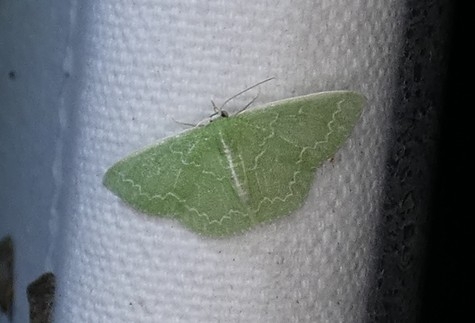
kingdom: Animalia
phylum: Arthropoda
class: Insecta
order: Lepidoptera
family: Geometridae
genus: Synchlora
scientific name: Synchlora frondaria
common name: Southern emerald
